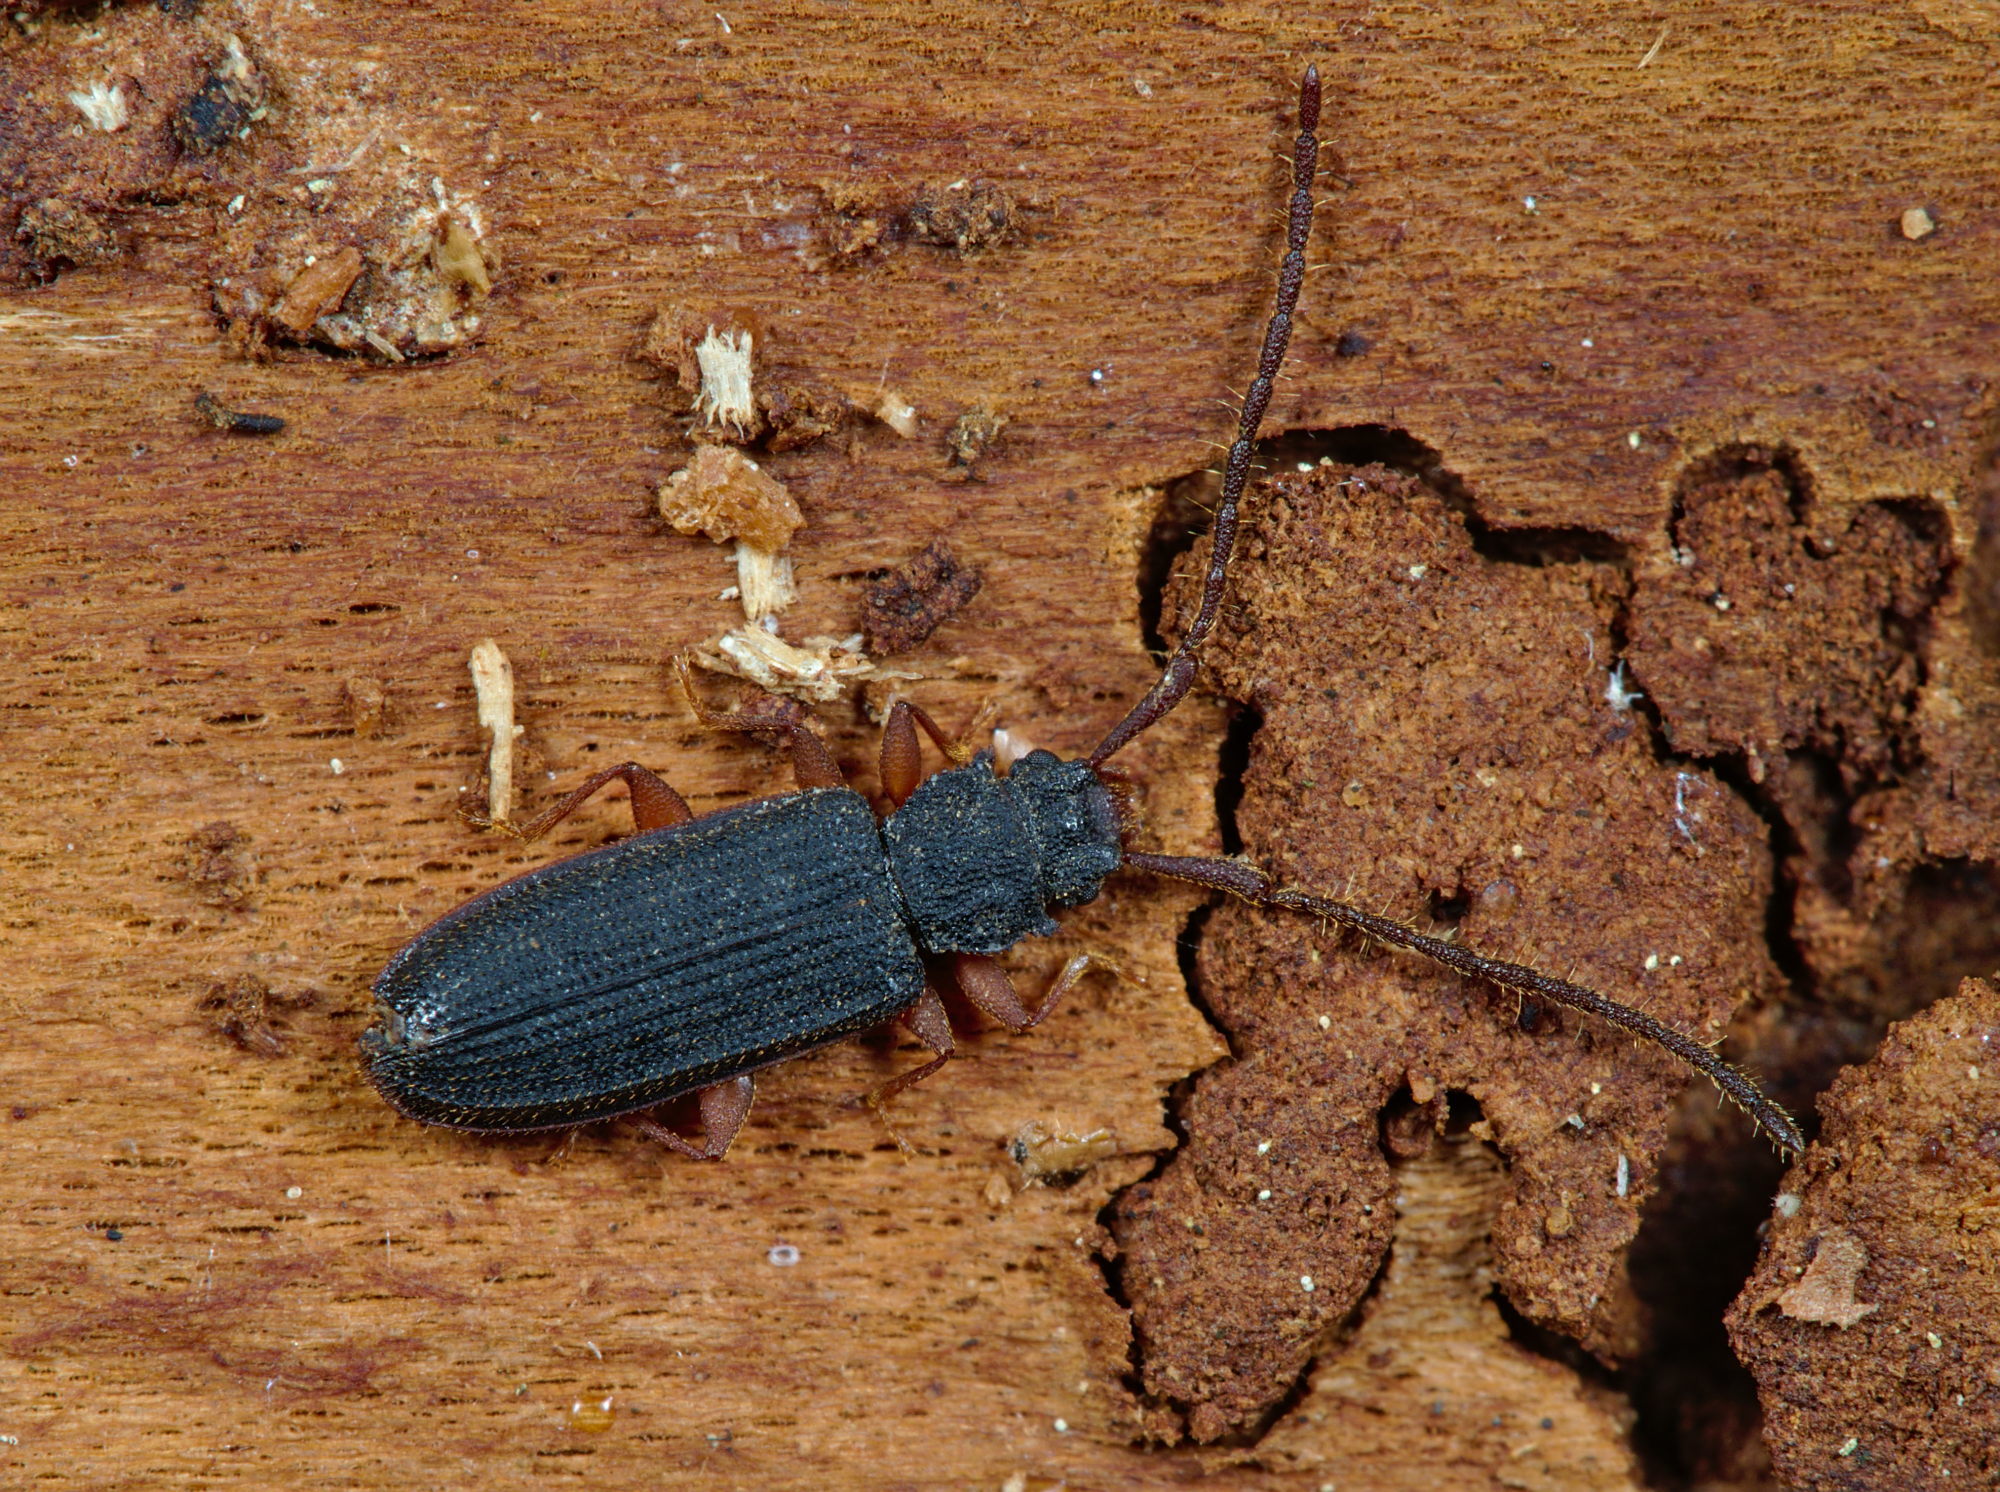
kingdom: Animalia
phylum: Arthropoda
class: Insecta
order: Coleoptera
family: Silvanidae
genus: Uleiota
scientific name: Uleiota planatus
